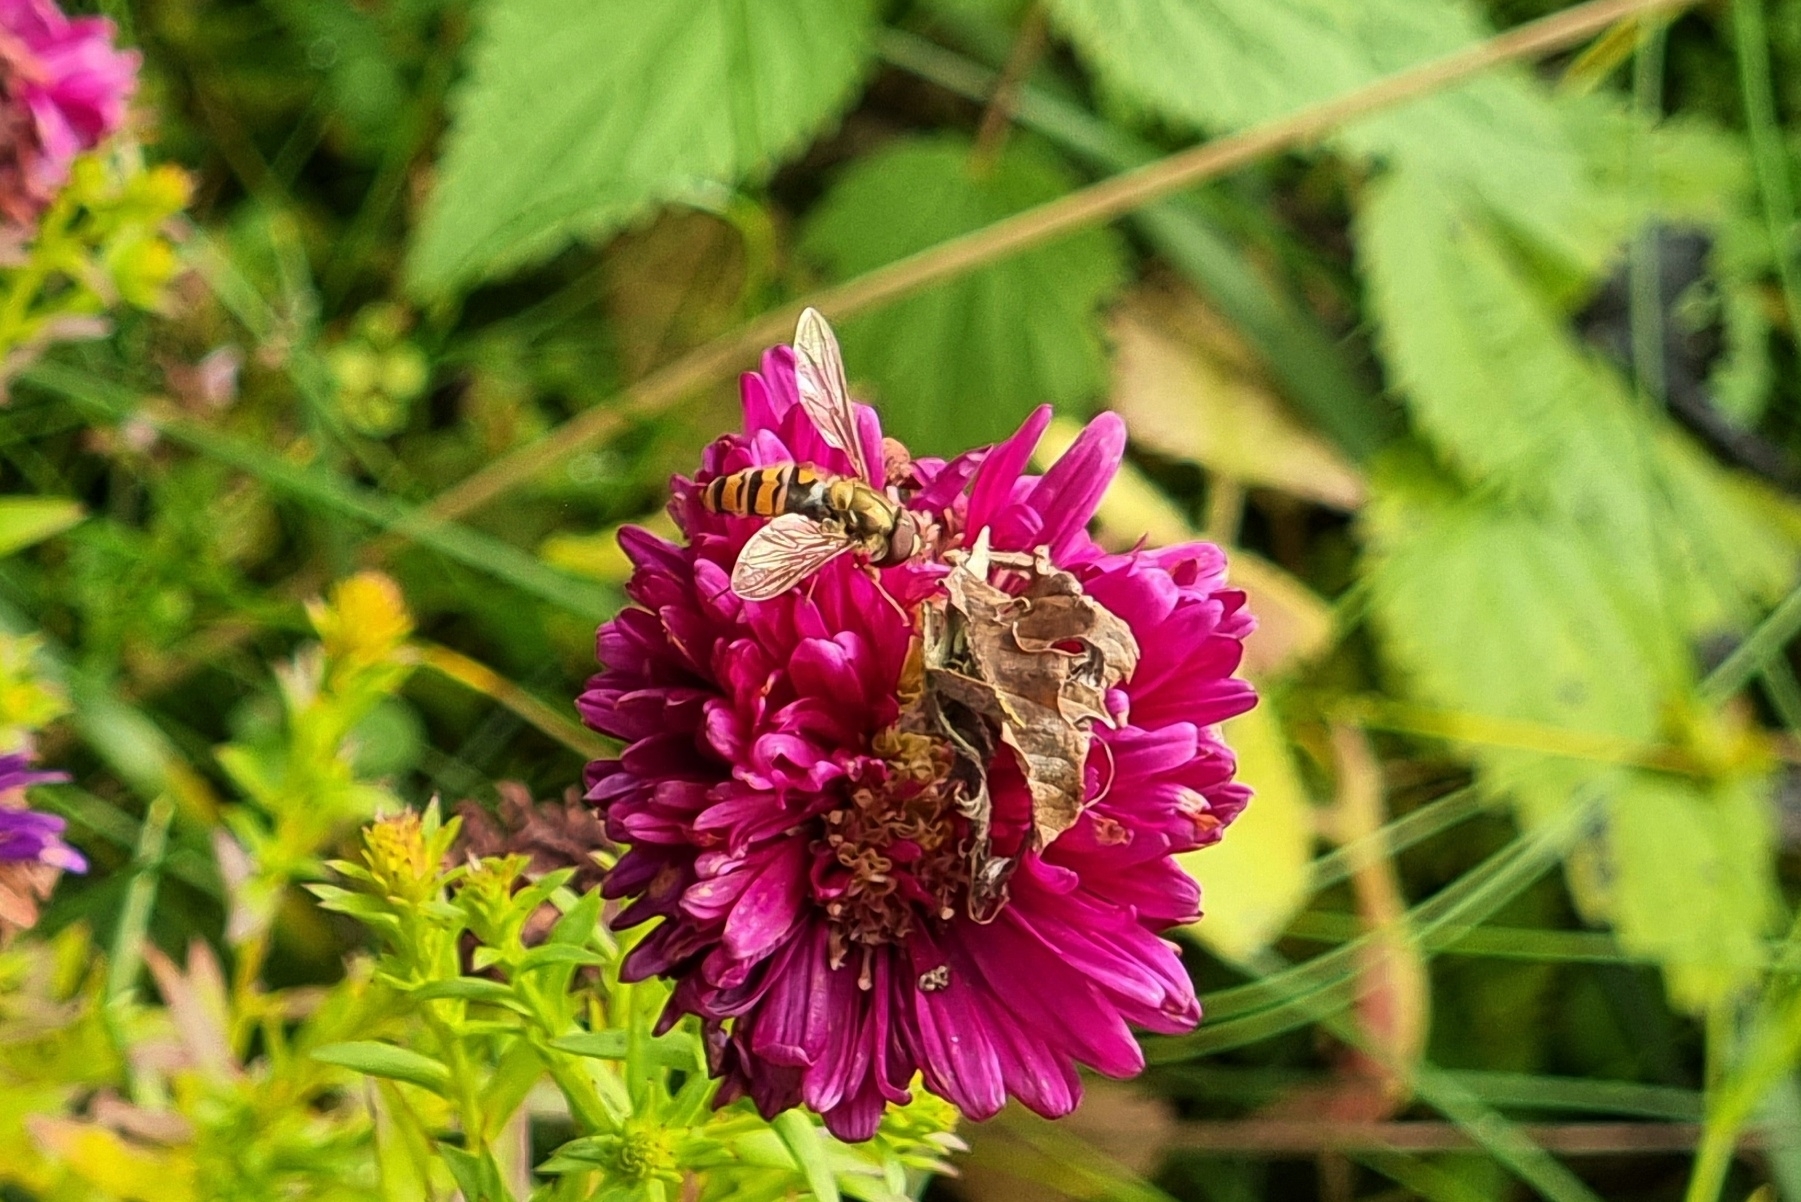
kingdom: Animalia
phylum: Arthropoda
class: Insecta
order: Diptera
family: Syrphidae
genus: Episyrphus
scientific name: Episyrphus balteatus
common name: Marmalade hoverfly
